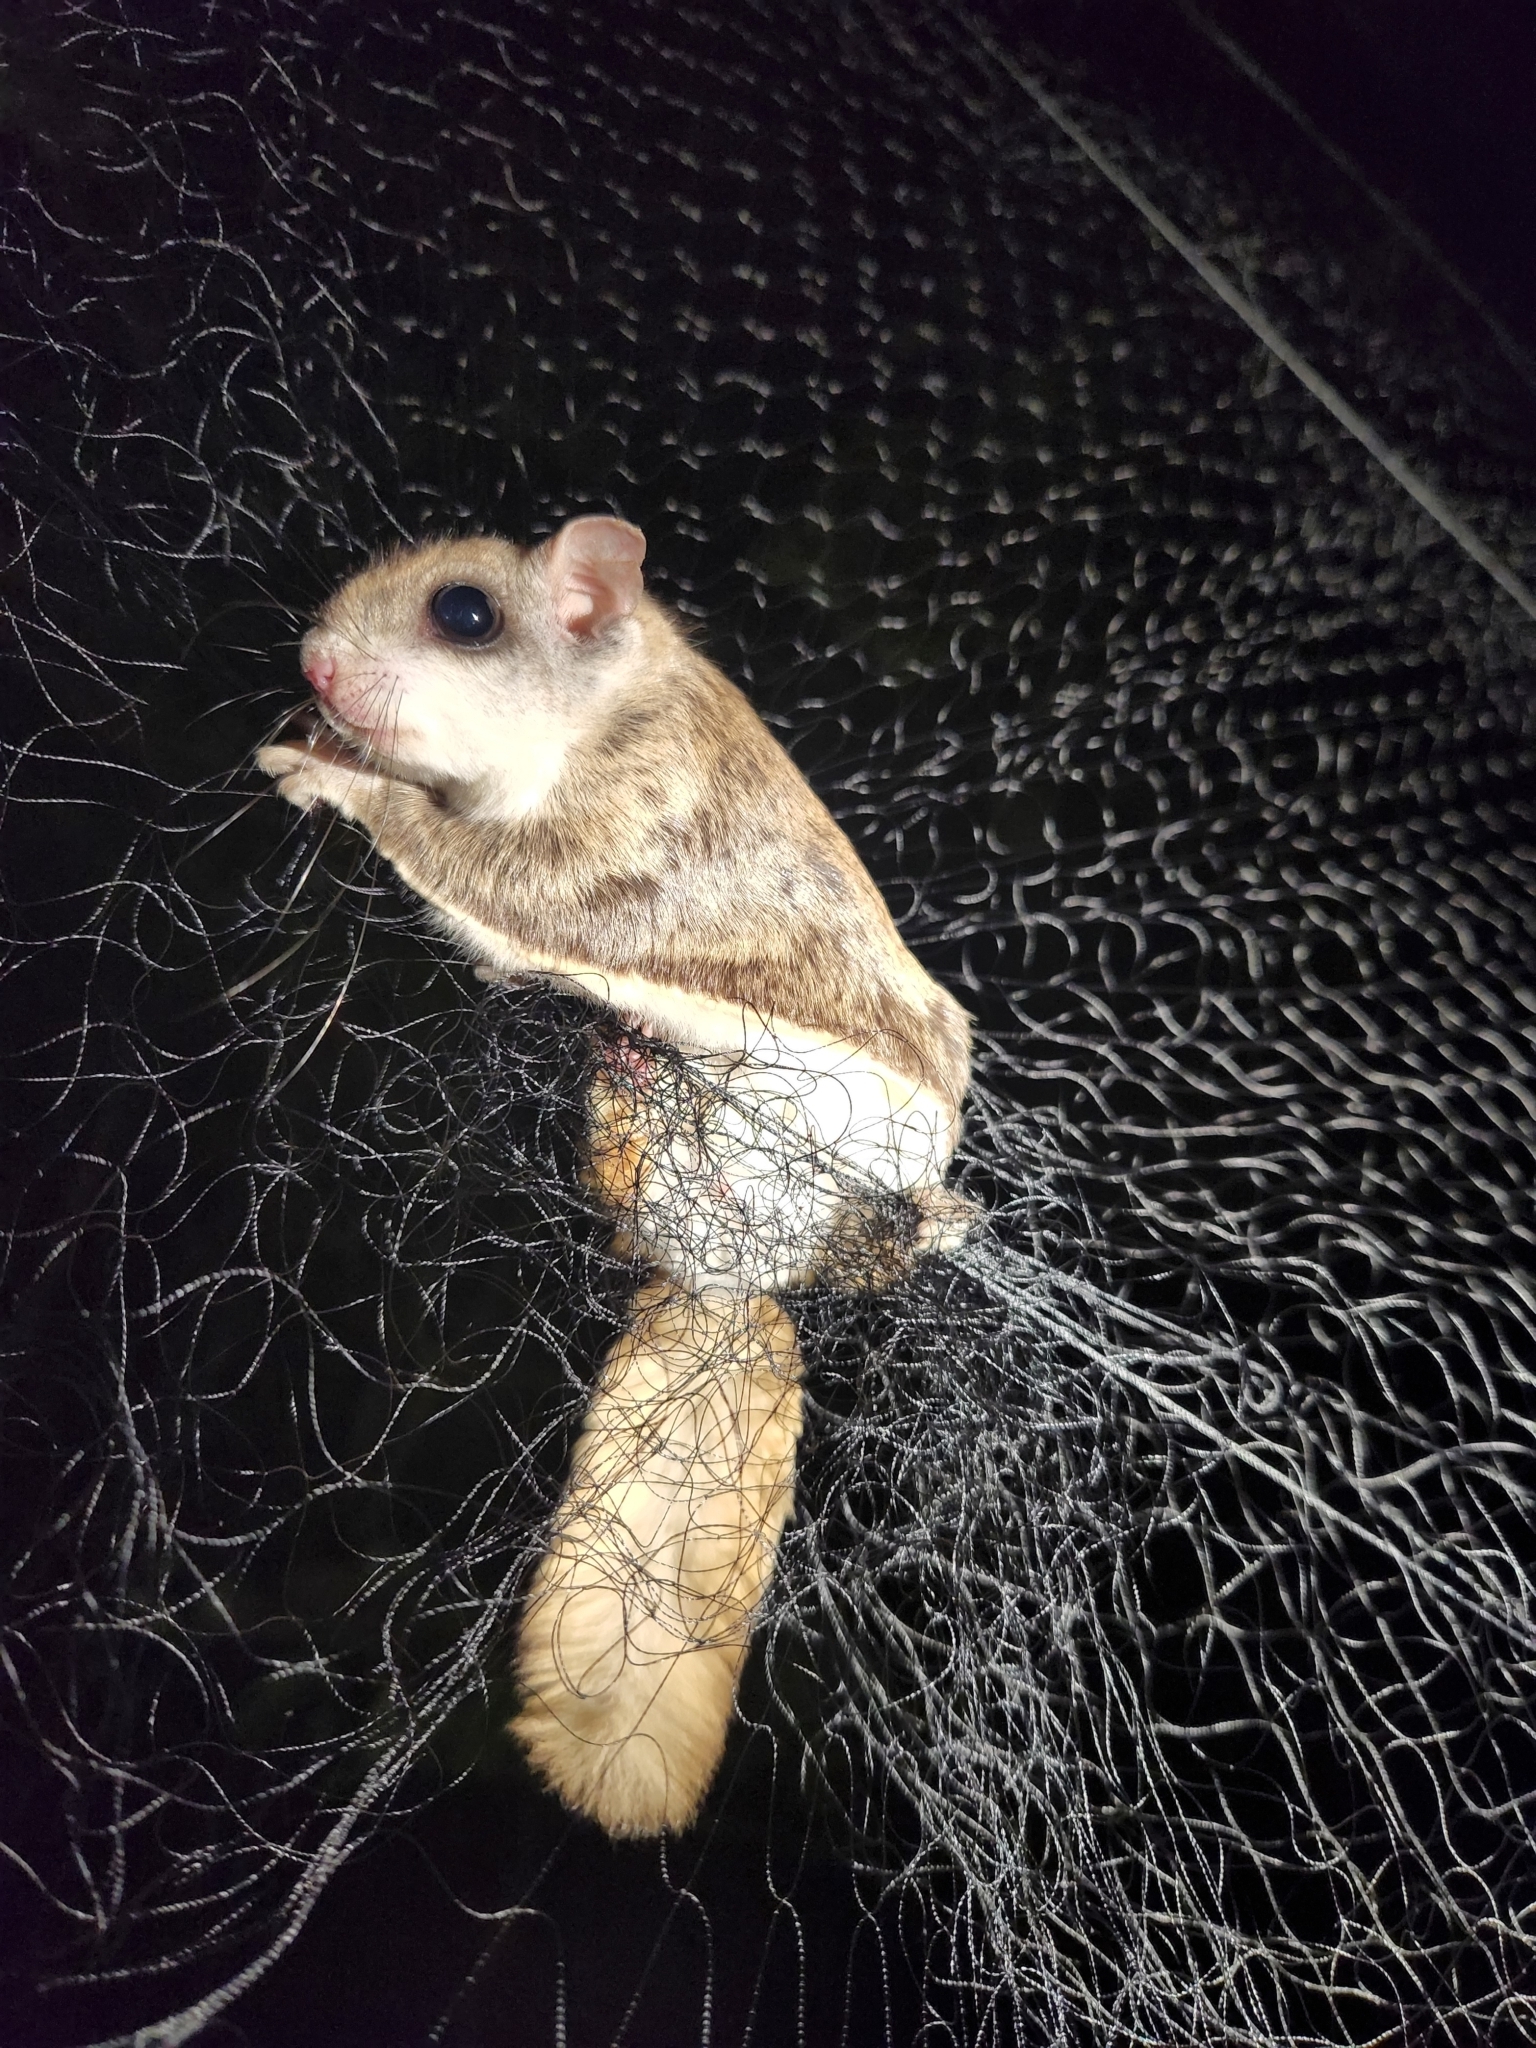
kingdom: Animalia
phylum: Chordata
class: Mammalia
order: Rodentia
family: Sciuridae
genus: Glaucomys
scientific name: Glaucomys volans
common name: Southern flying squirrel
